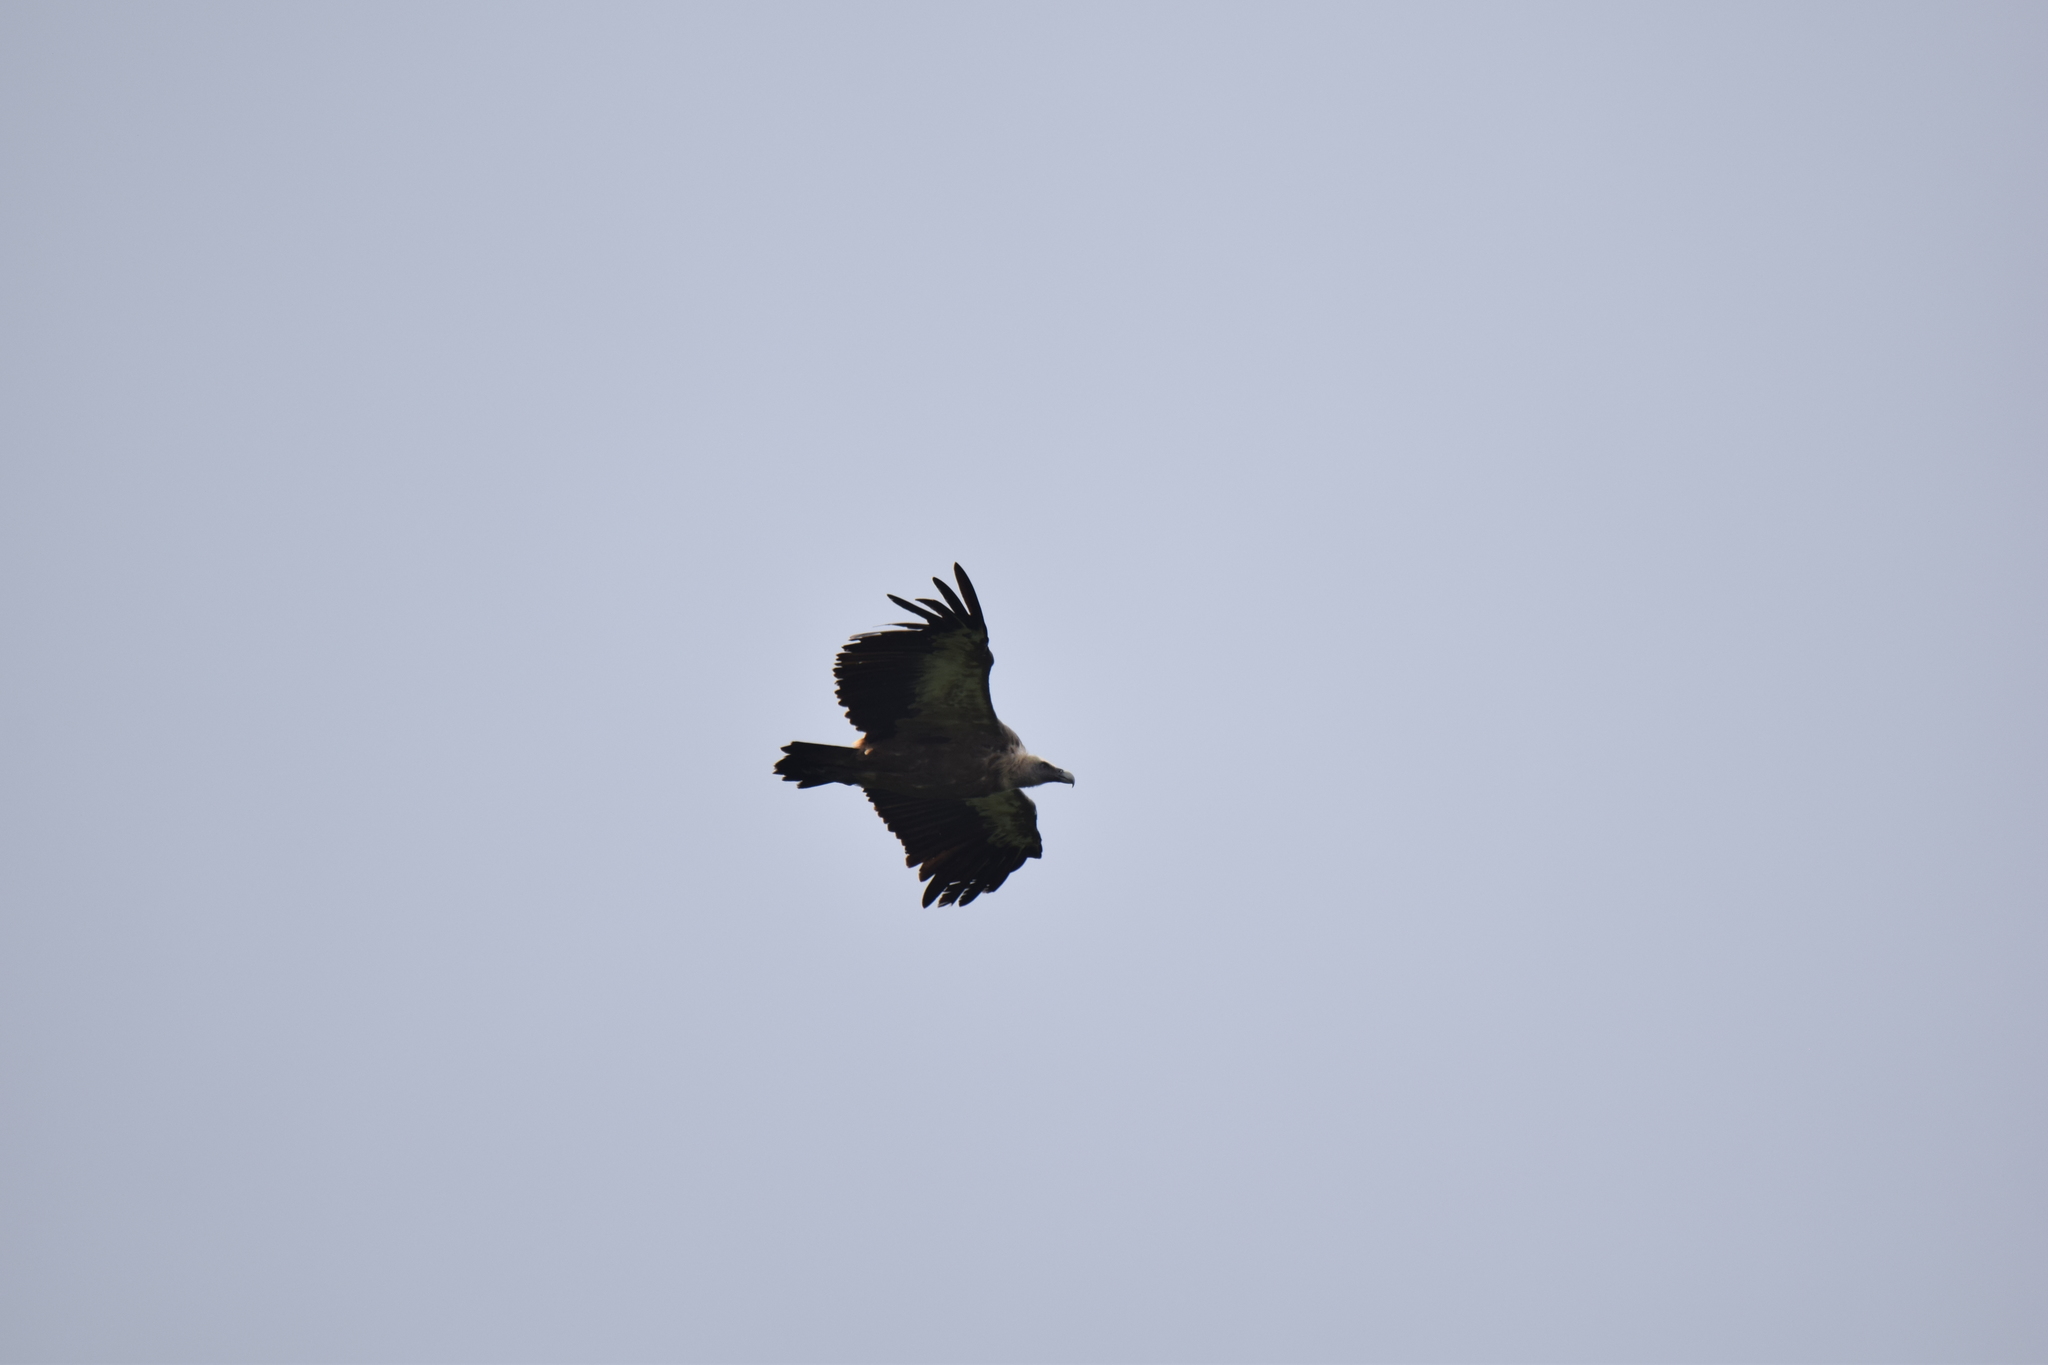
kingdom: Animalia
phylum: Chordata
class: Aves
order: Accipitriformes
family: Accipitridae
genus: Gyps
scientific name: Gyps fulvus
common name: Griffon vulture
